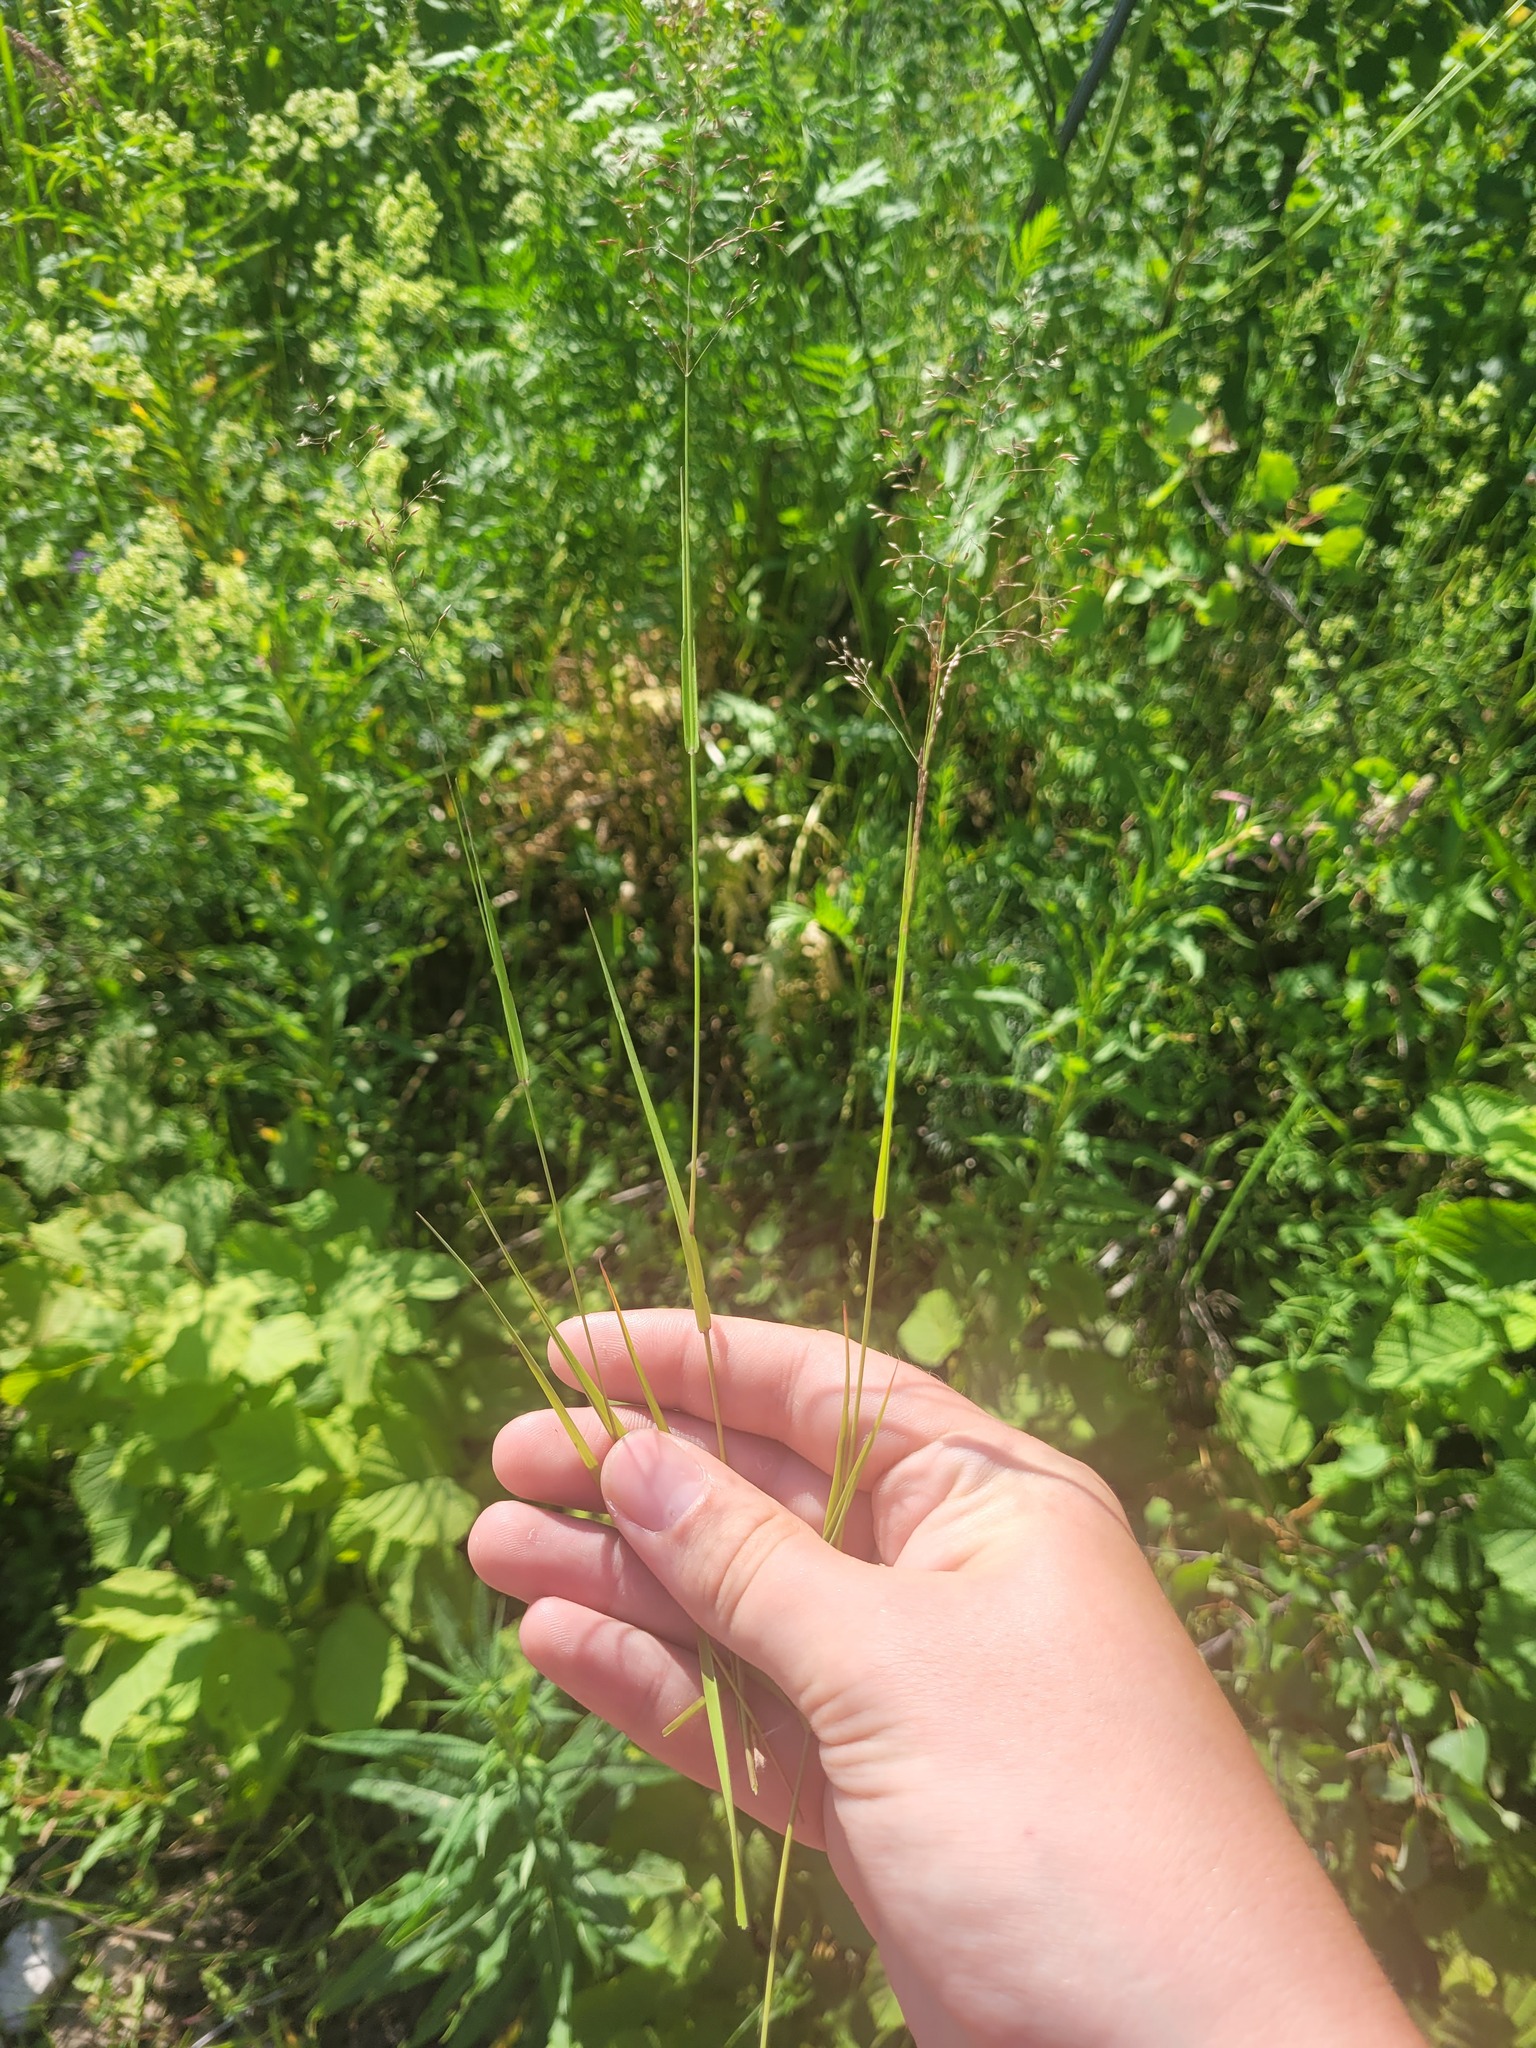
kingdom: Plantae
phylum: Tracheophyta
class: Liliopsida
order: Poales
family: Poaceae
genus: Agrostis
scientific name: Agrostis capillaris
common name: Colonial bentgrass
